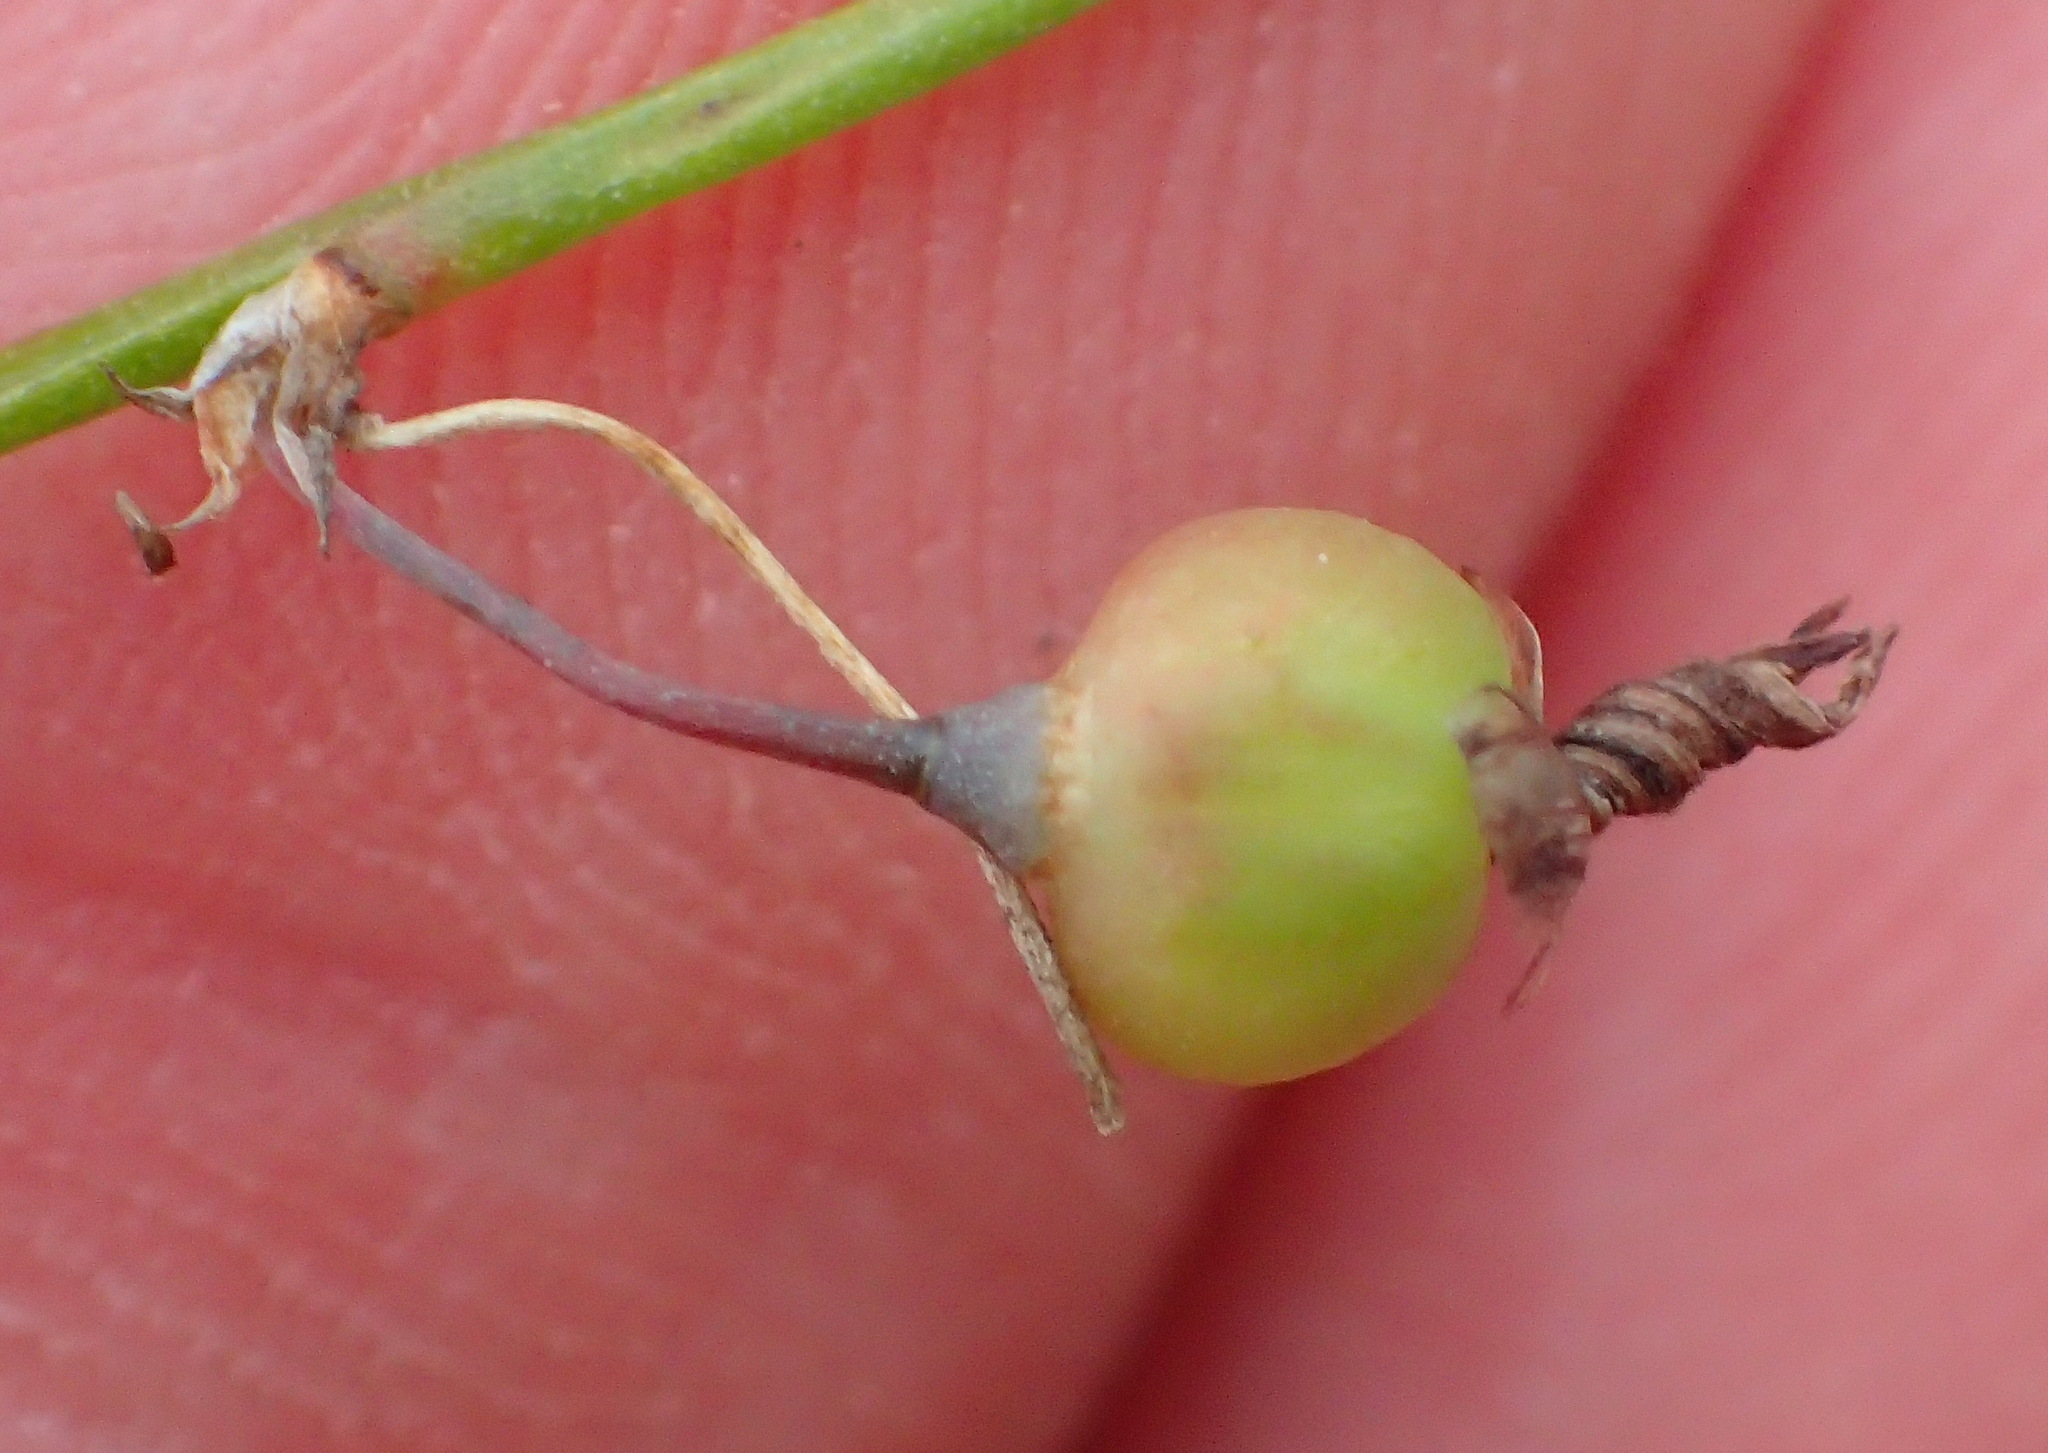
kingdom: Plantae
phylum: Tracheophyta
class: Liliopsida
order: Asparagales
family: Asphodelaceae
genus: Caesia
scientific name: Caesia contorta
